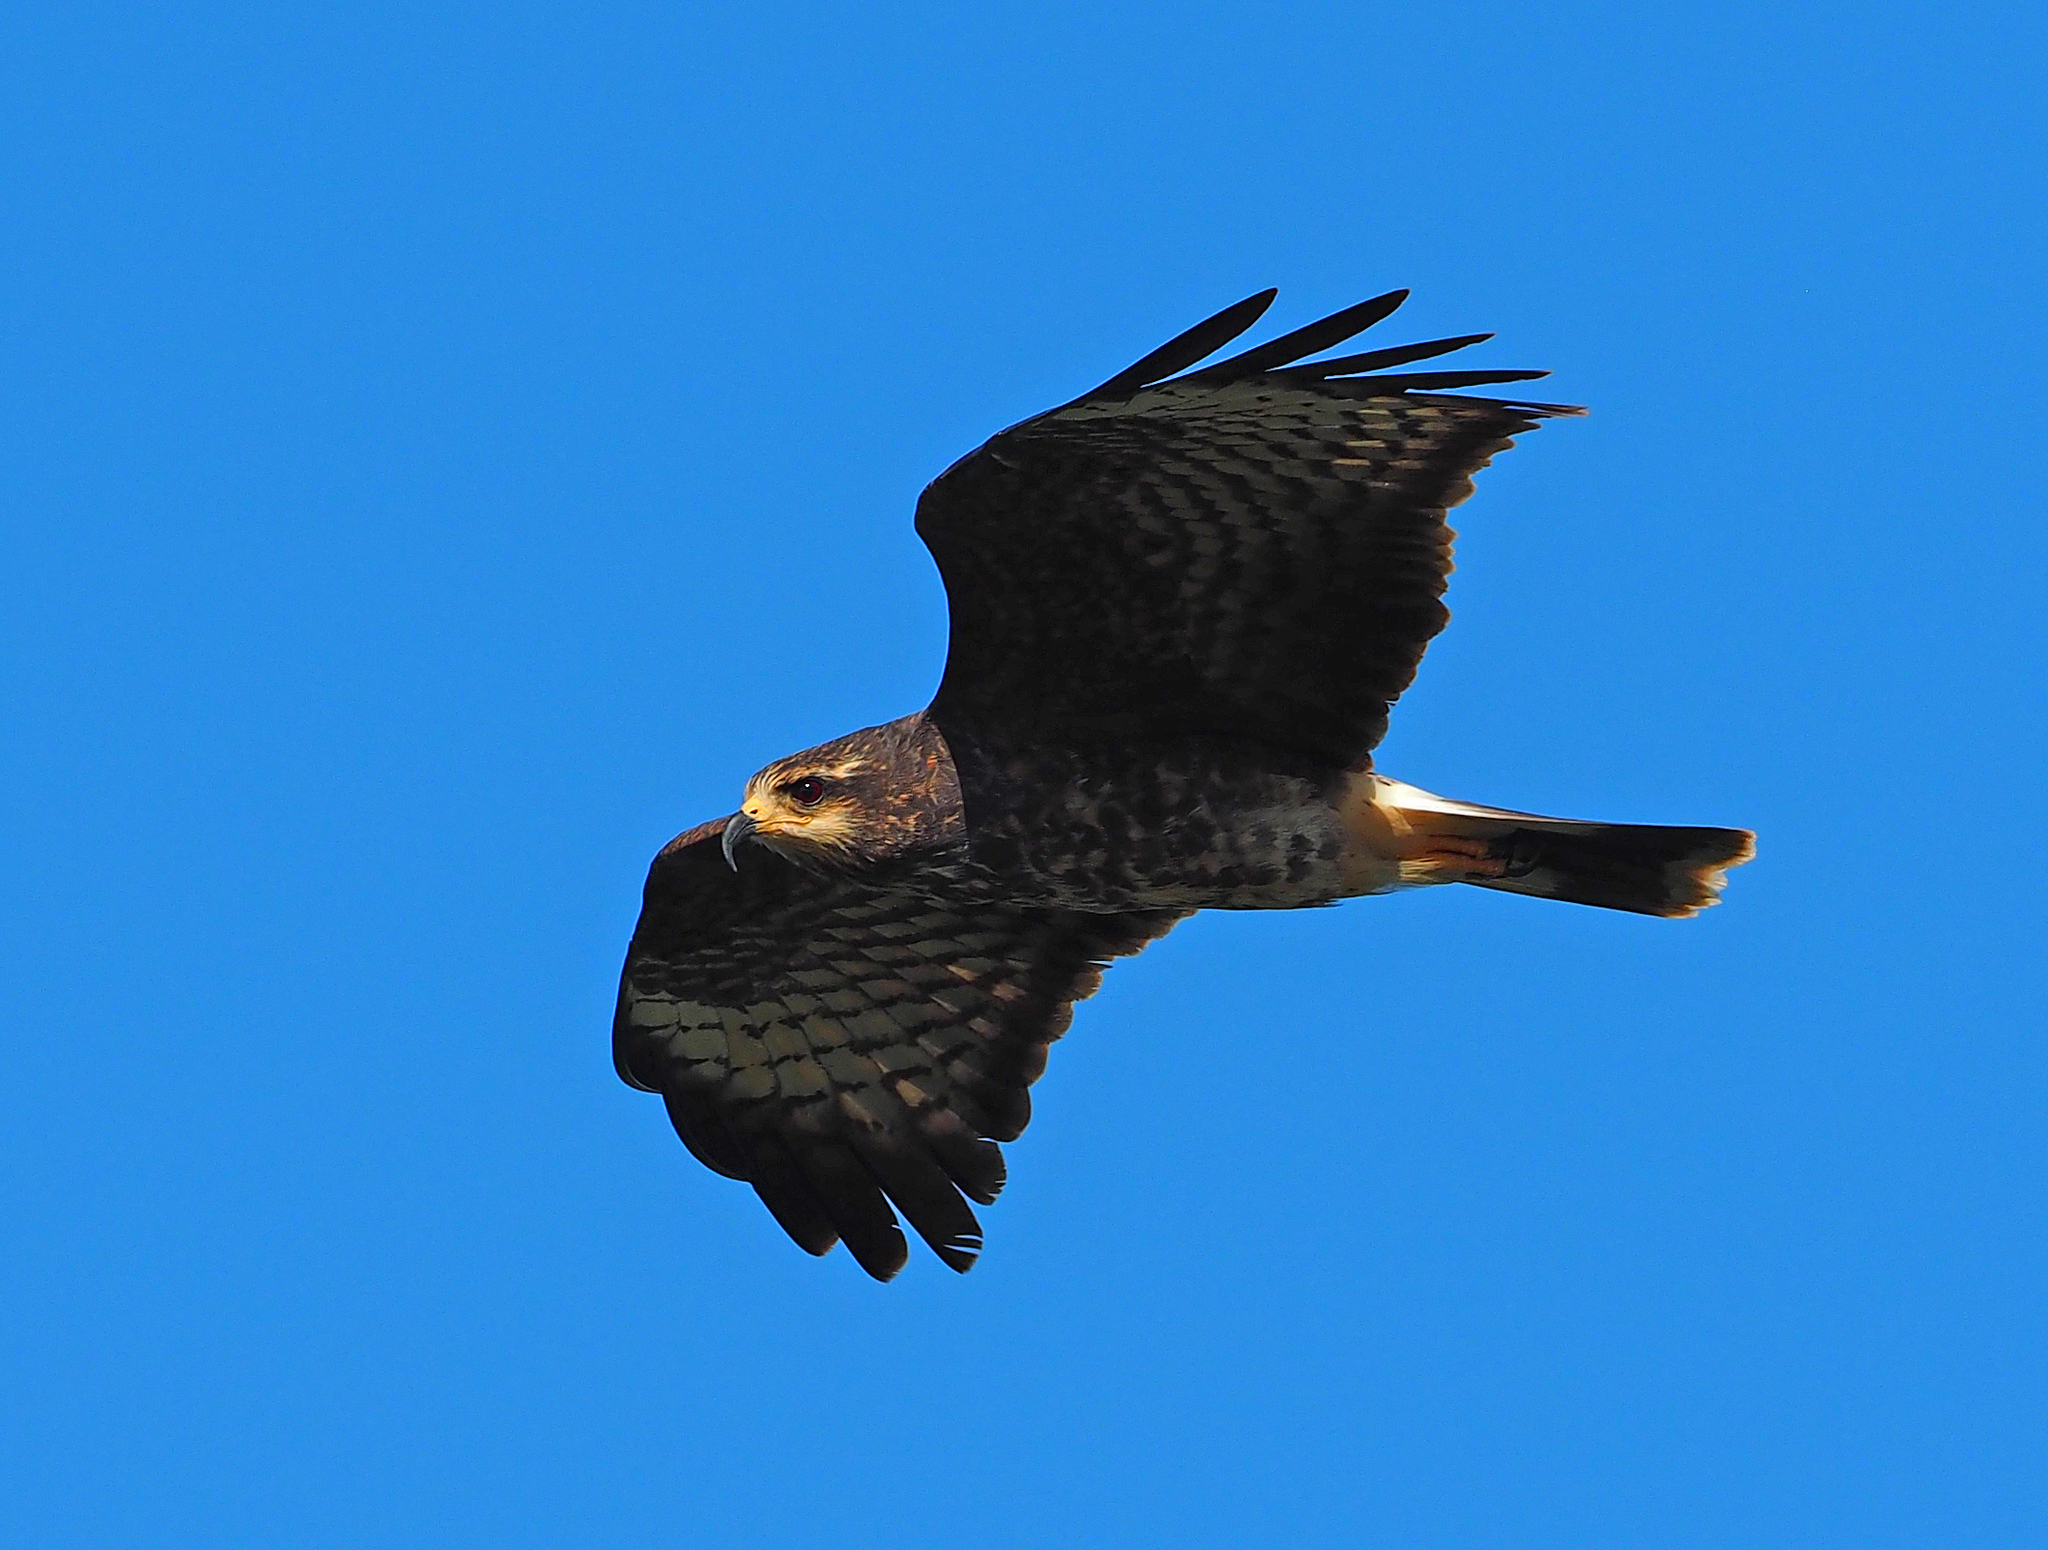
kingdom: Animalia
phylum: Chordata
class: Aves
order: Accipitriformes
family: Accipitridae
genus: Rostrhamus
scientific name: Rostrhamus sociabilis
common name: Snail kite
